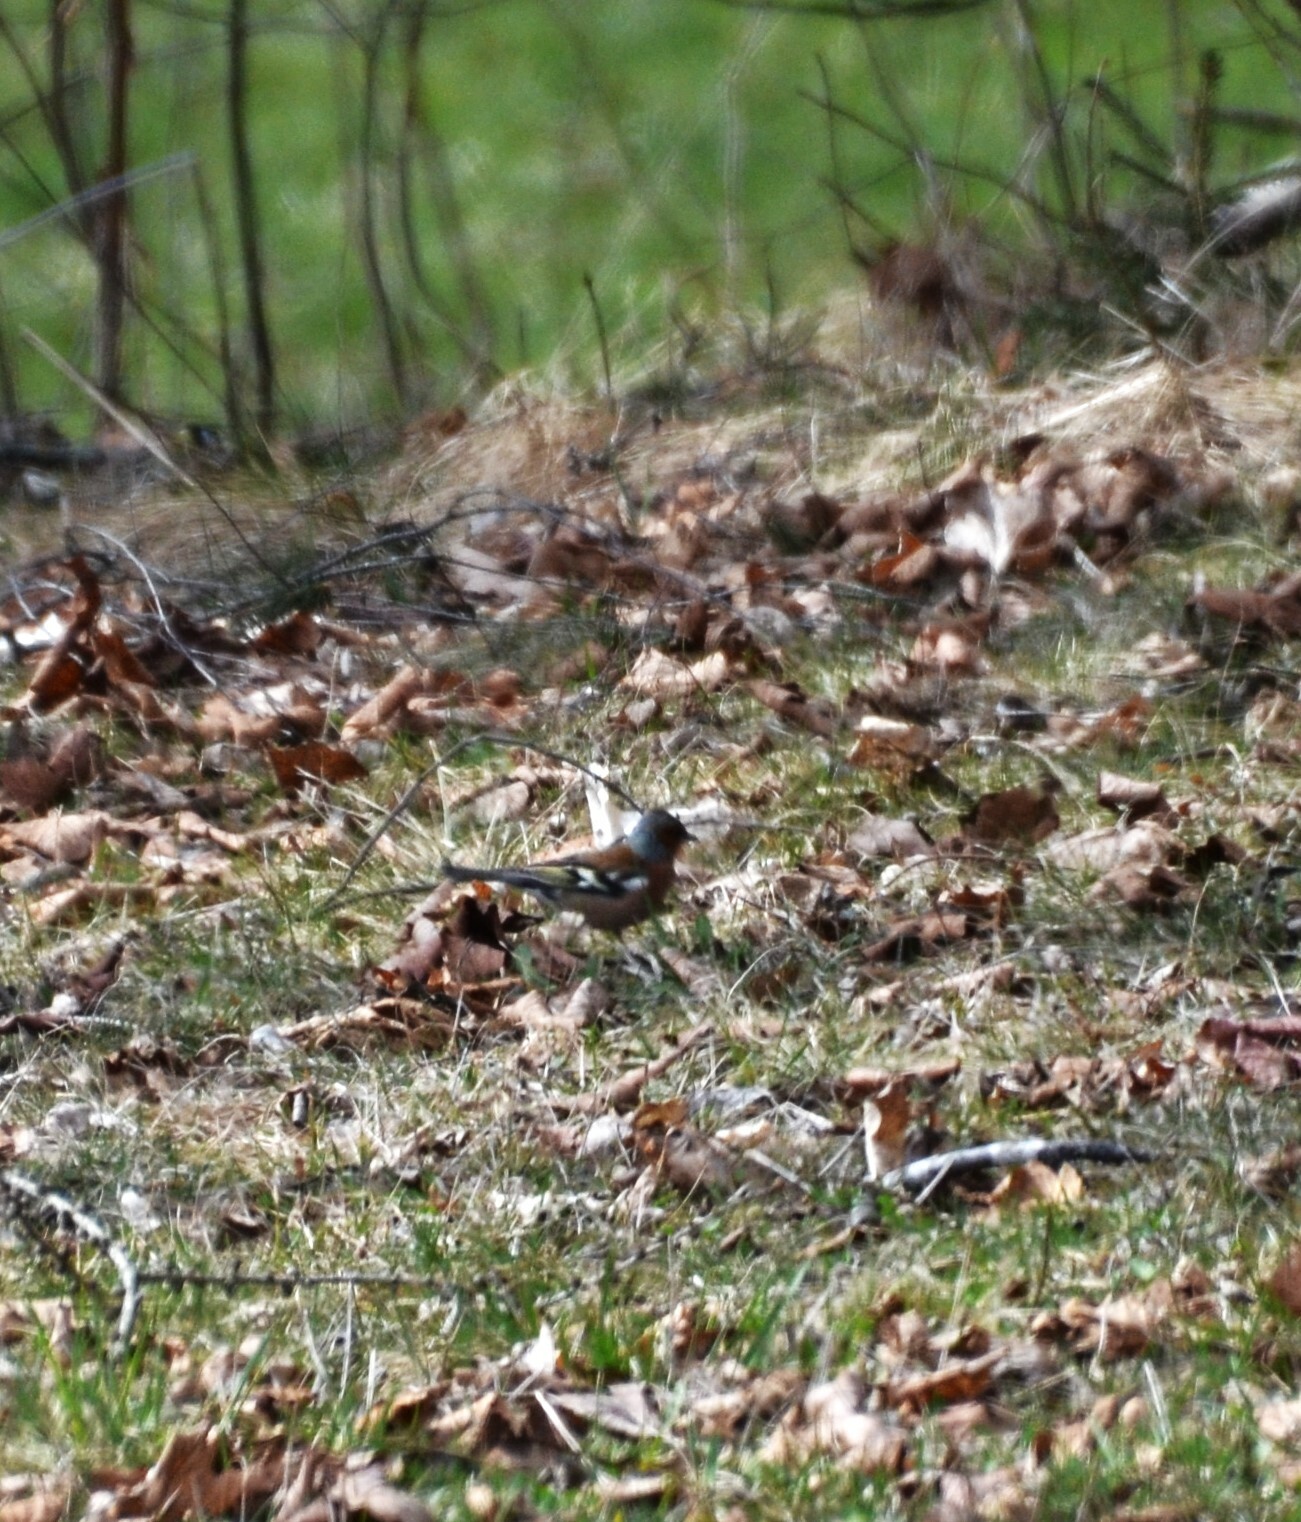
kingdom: Animalia
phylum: Chordata
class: Aves
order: Passeriformes
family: Fringillidae
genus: Fringilla
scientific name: Fringilla coelebs
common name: Common chaffinch
